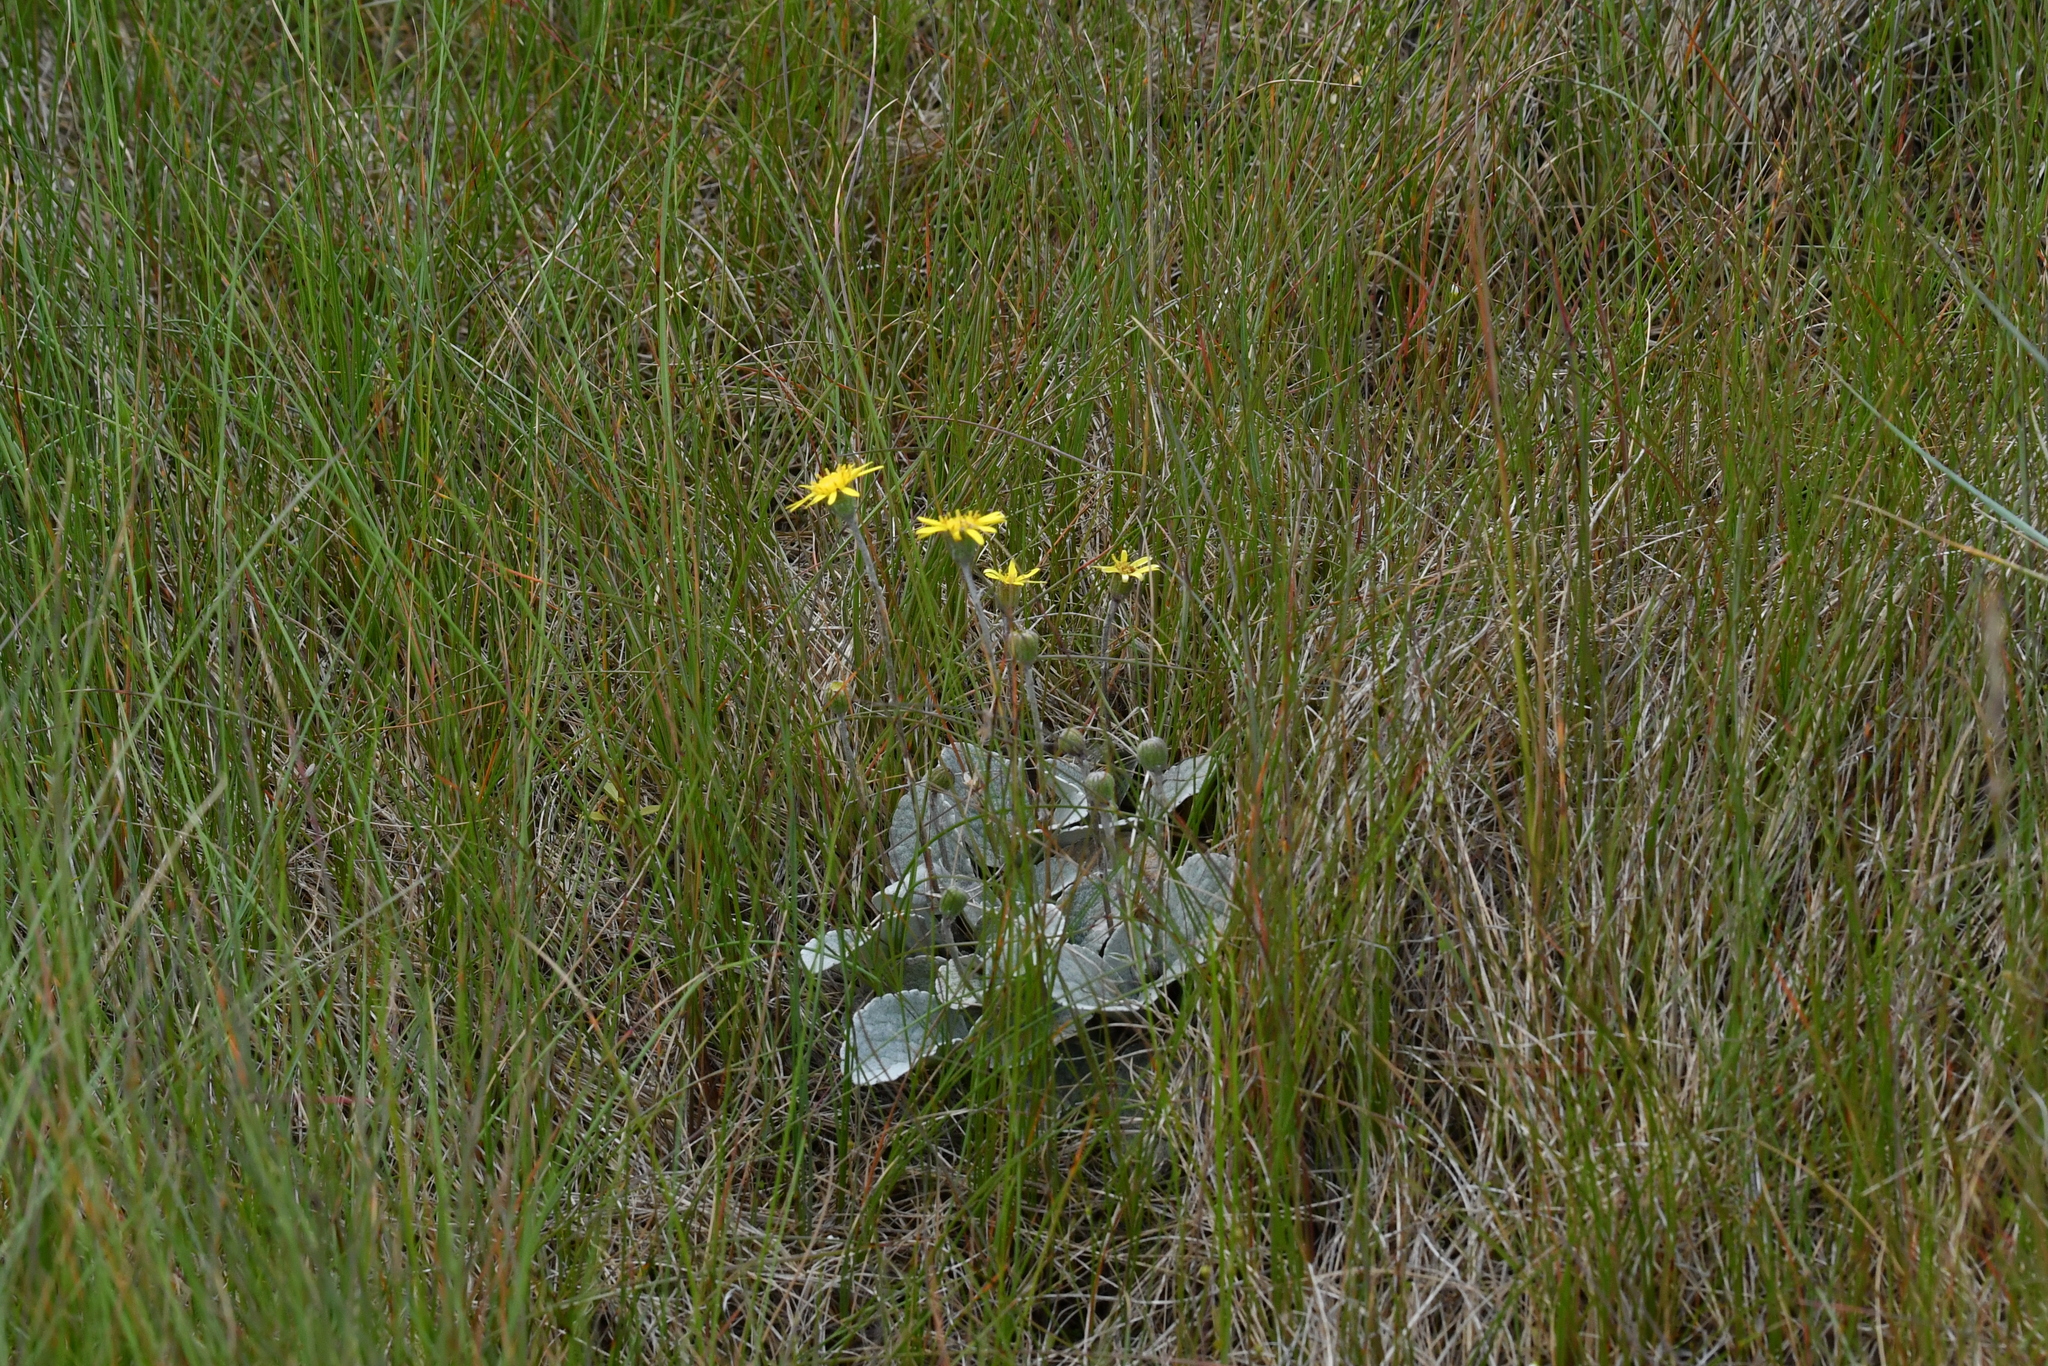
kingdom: Plantae
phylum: Tracheophyta
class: Magnoliopsida
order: Asterales
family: Asteraceae
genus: Brachyglottis
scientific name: Brachyglottis haastii
